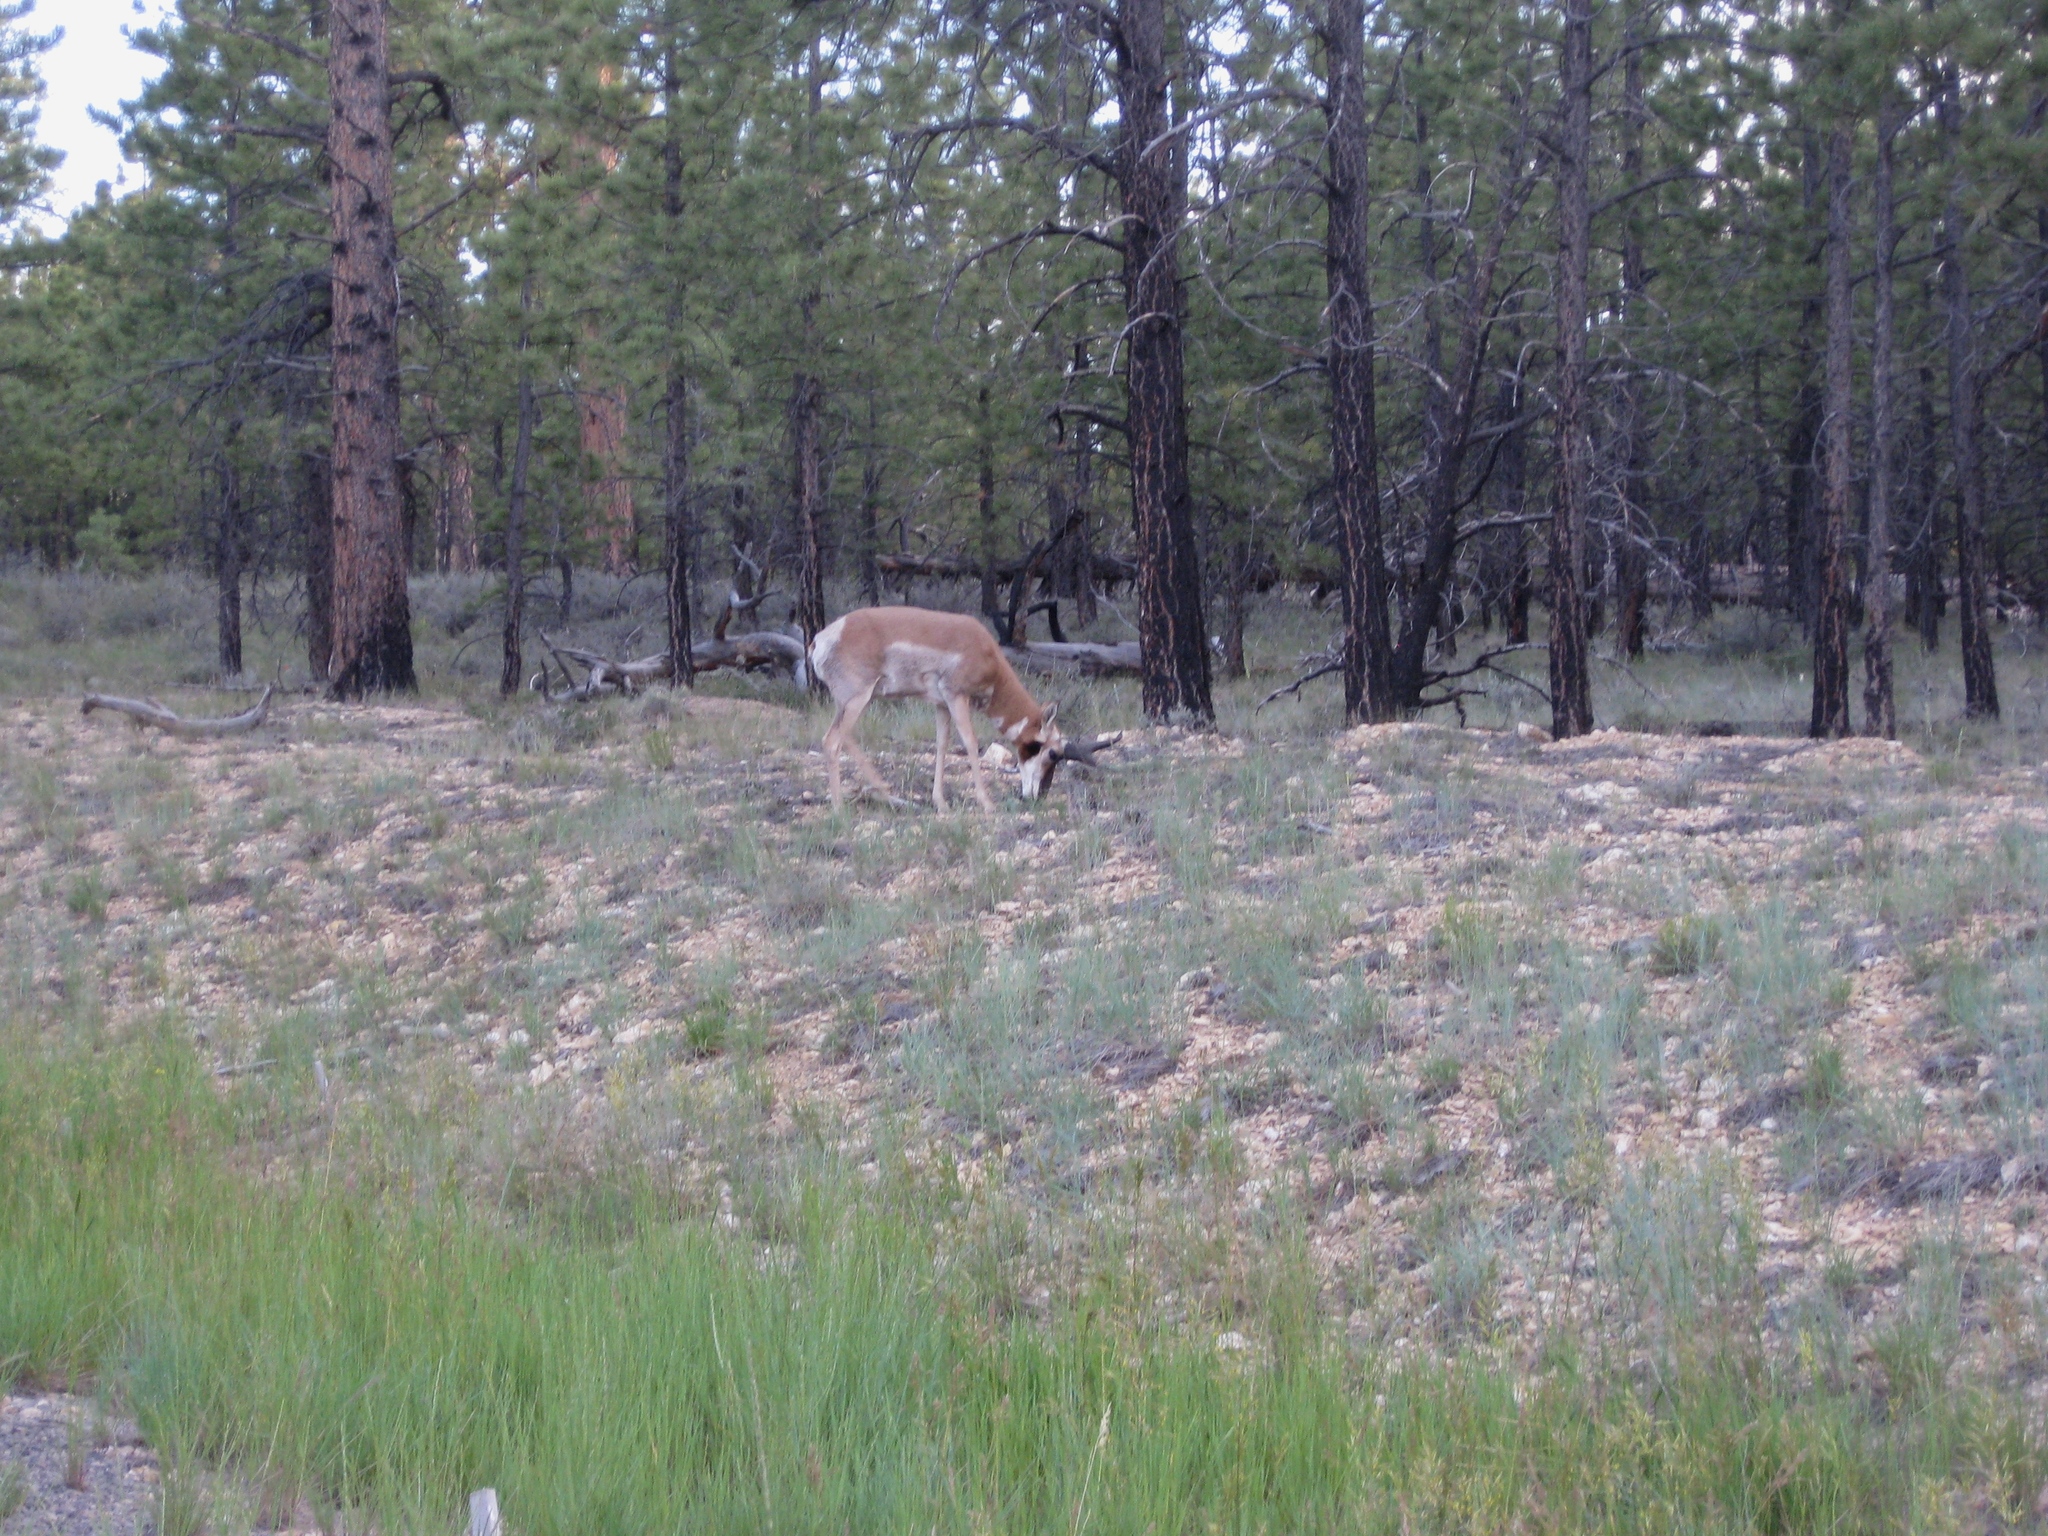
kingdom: Animalia
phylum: Chordata
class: Mammalia
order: Artiodactyla
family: Antilocapridae
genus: Antilocapra
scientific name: Antilocapra americana
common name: Pronghorn
